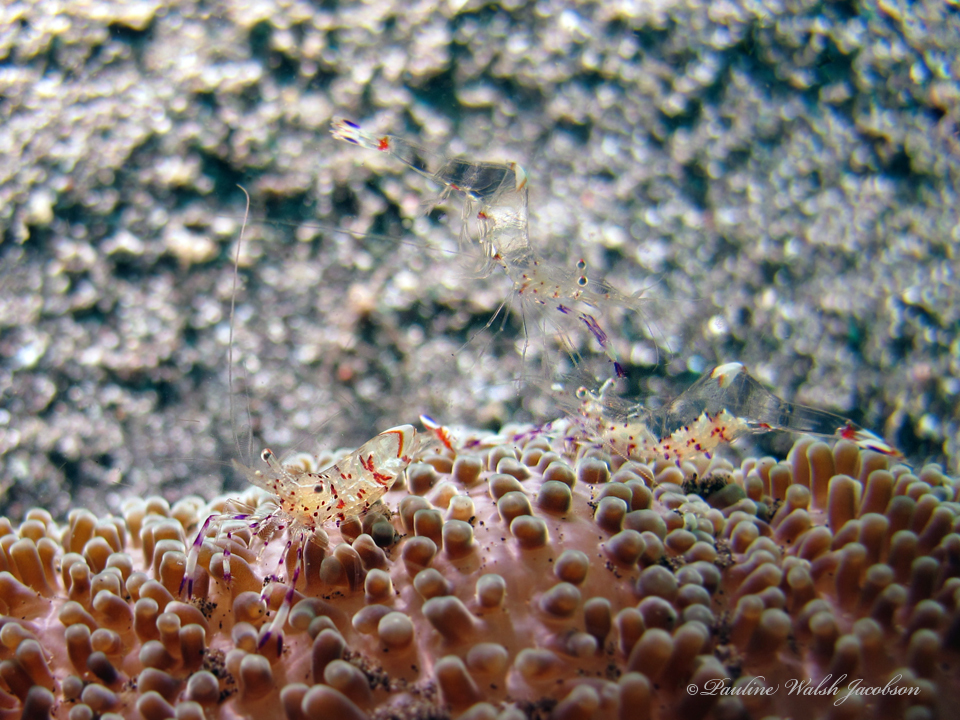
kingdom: Animalia
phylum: Arthropoda
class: Malacostraca
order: Decapoda
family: Palaemonidae
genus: Ancylomenes
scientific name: Ancylomenes holthuisi
